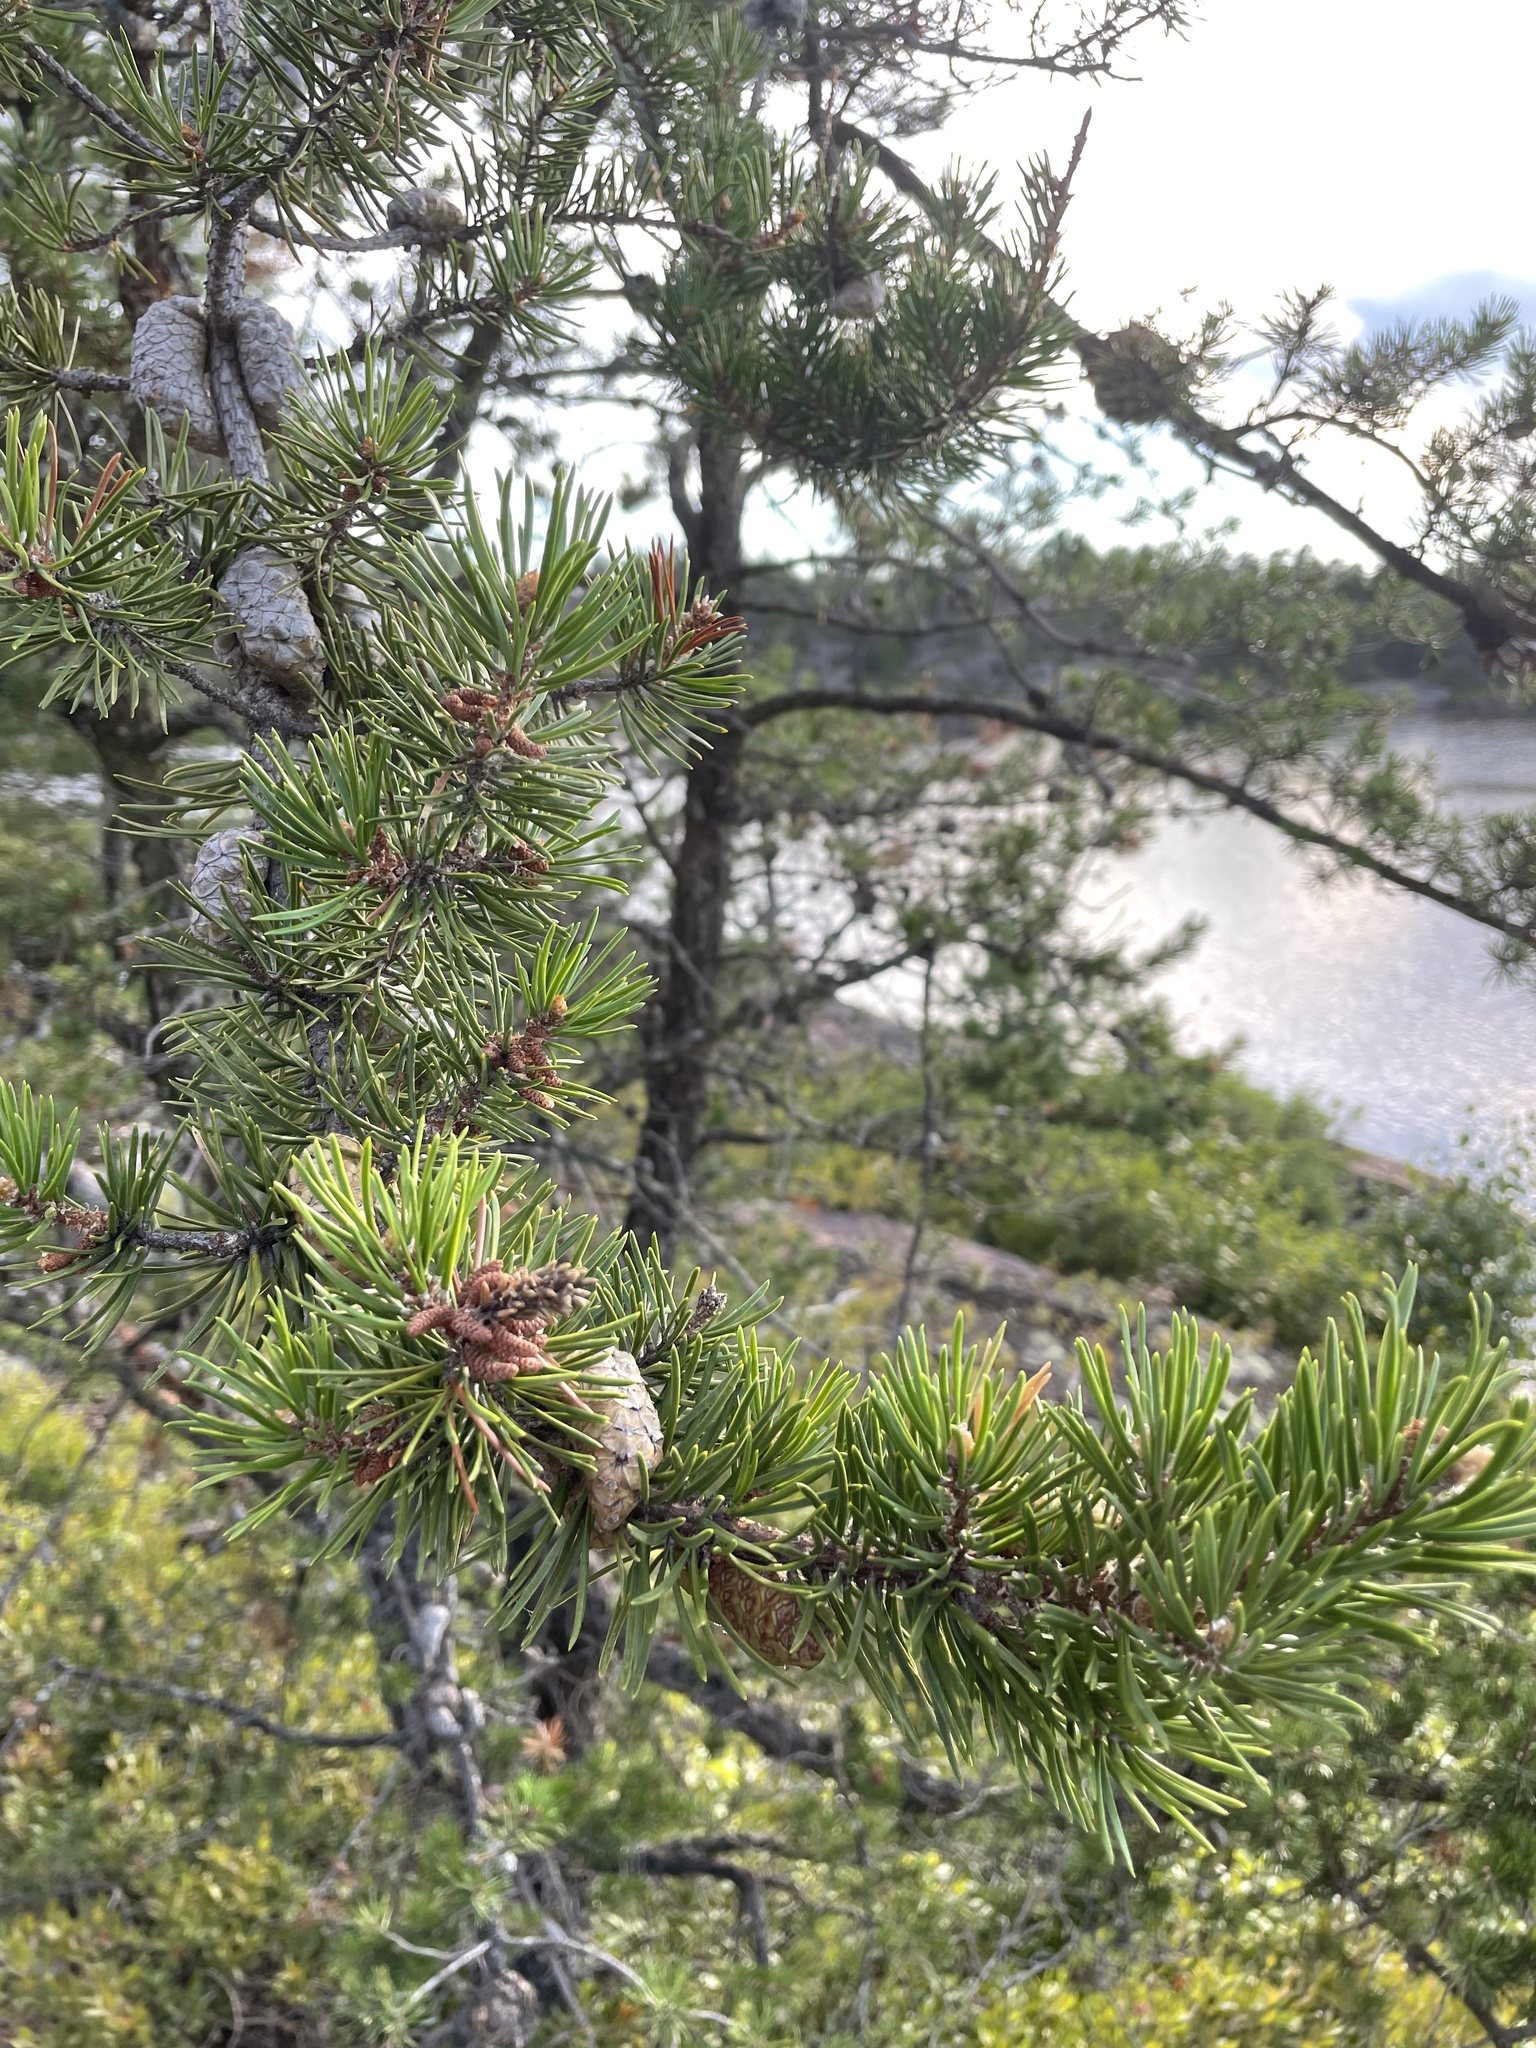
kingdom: Plantae
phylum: Tracheophyta
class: Pinopsida
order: Pinales
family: Pinaceae
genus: Pinus
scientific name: Pinus banksiana
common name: Jack pine
